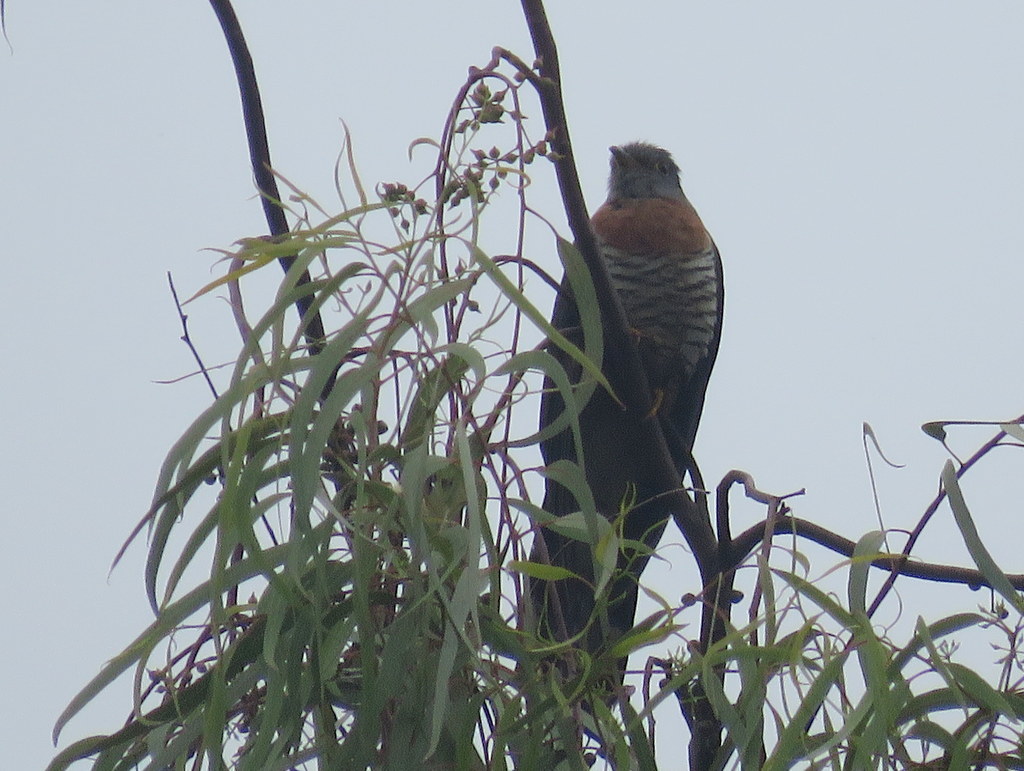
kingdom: Animalia
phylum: Chordata
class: Aves
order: Cuculiformes
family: Cuculidae
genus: Cuculus
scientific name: Cuculus solitarius
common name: Red-chested cuckoo
